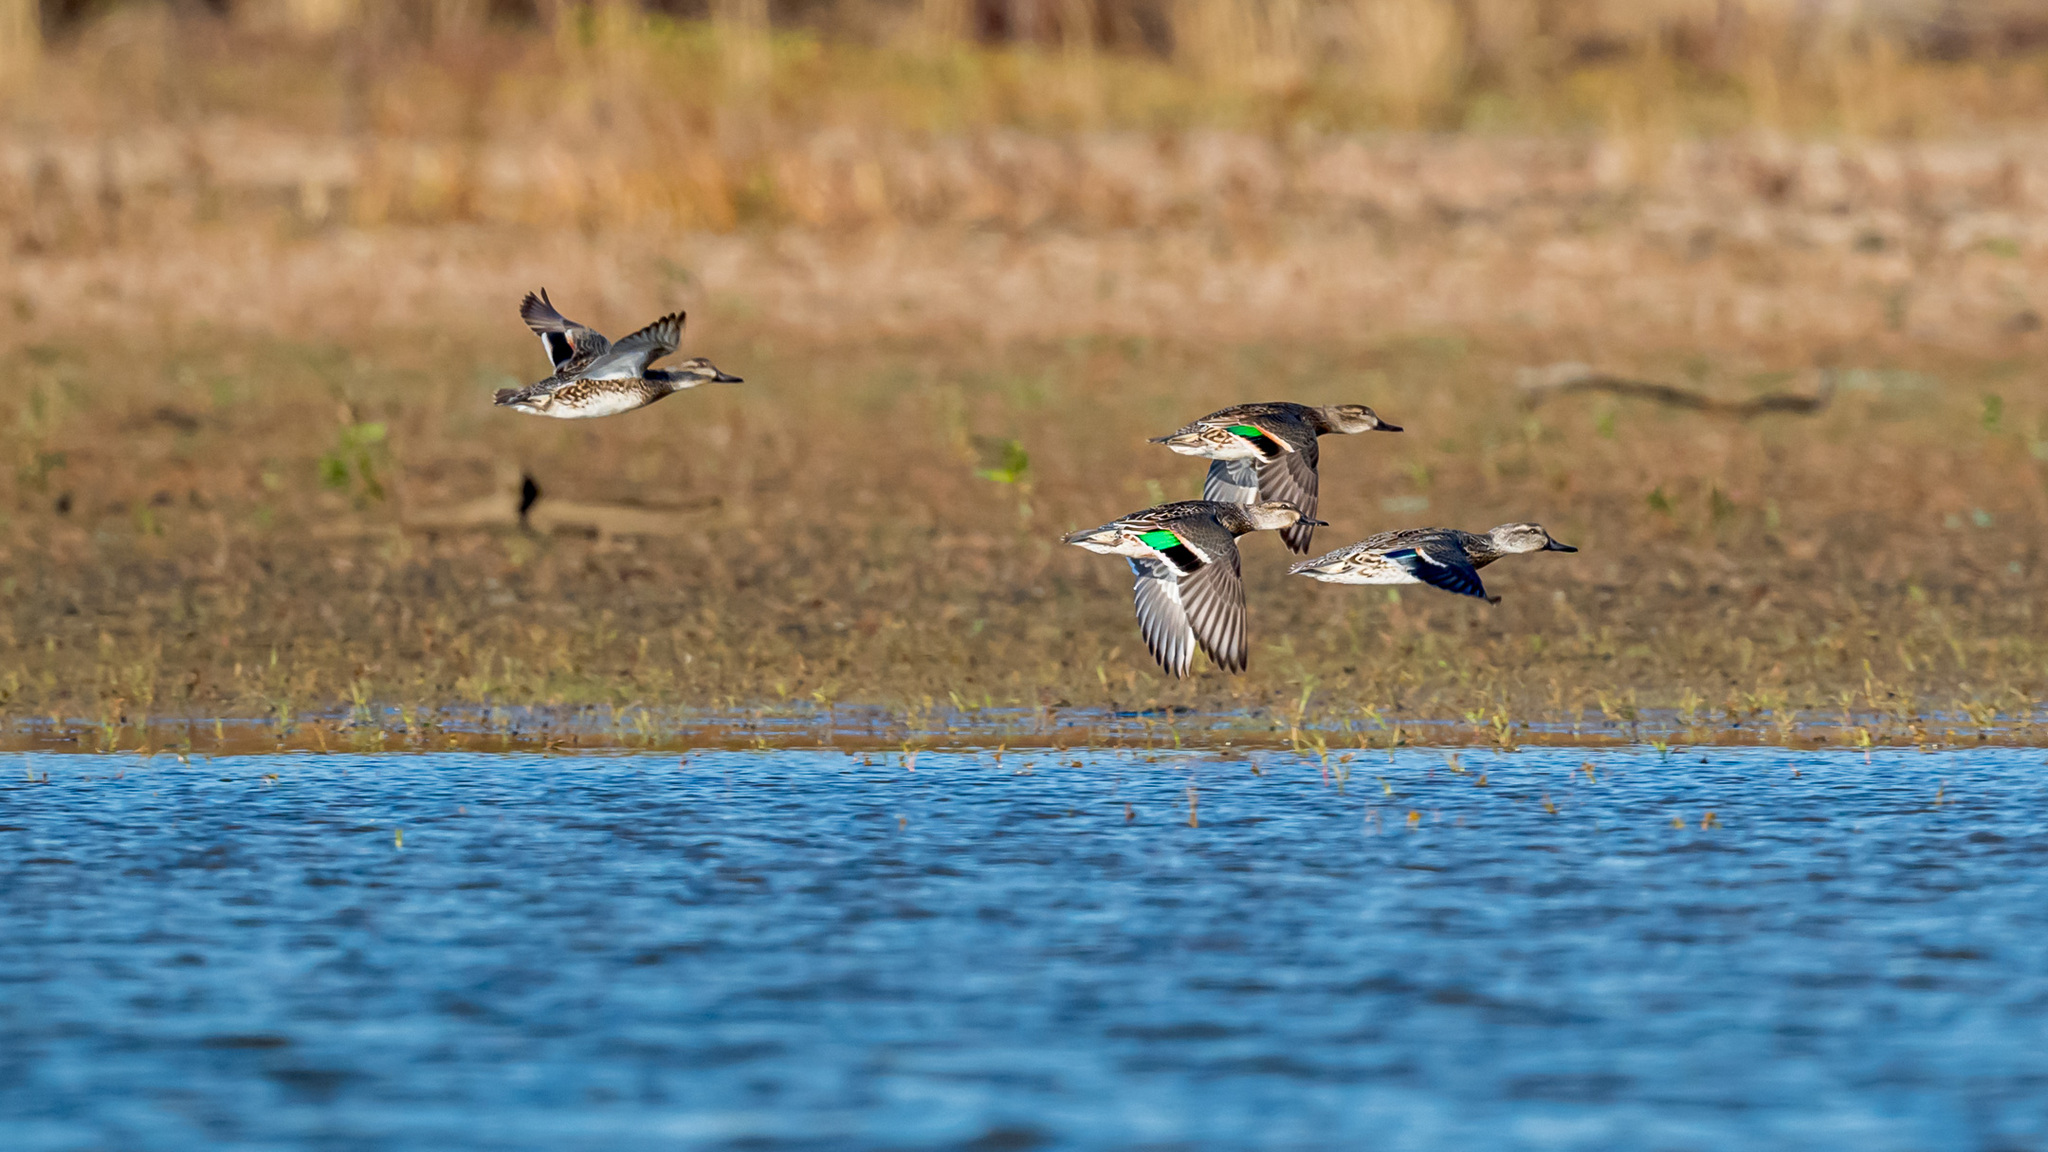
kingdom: Animalia
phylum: Chordata
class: Aves
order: Anseriformes
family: Anatidae
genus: Anas
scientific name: Anas crecca
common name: Eurasian teal
